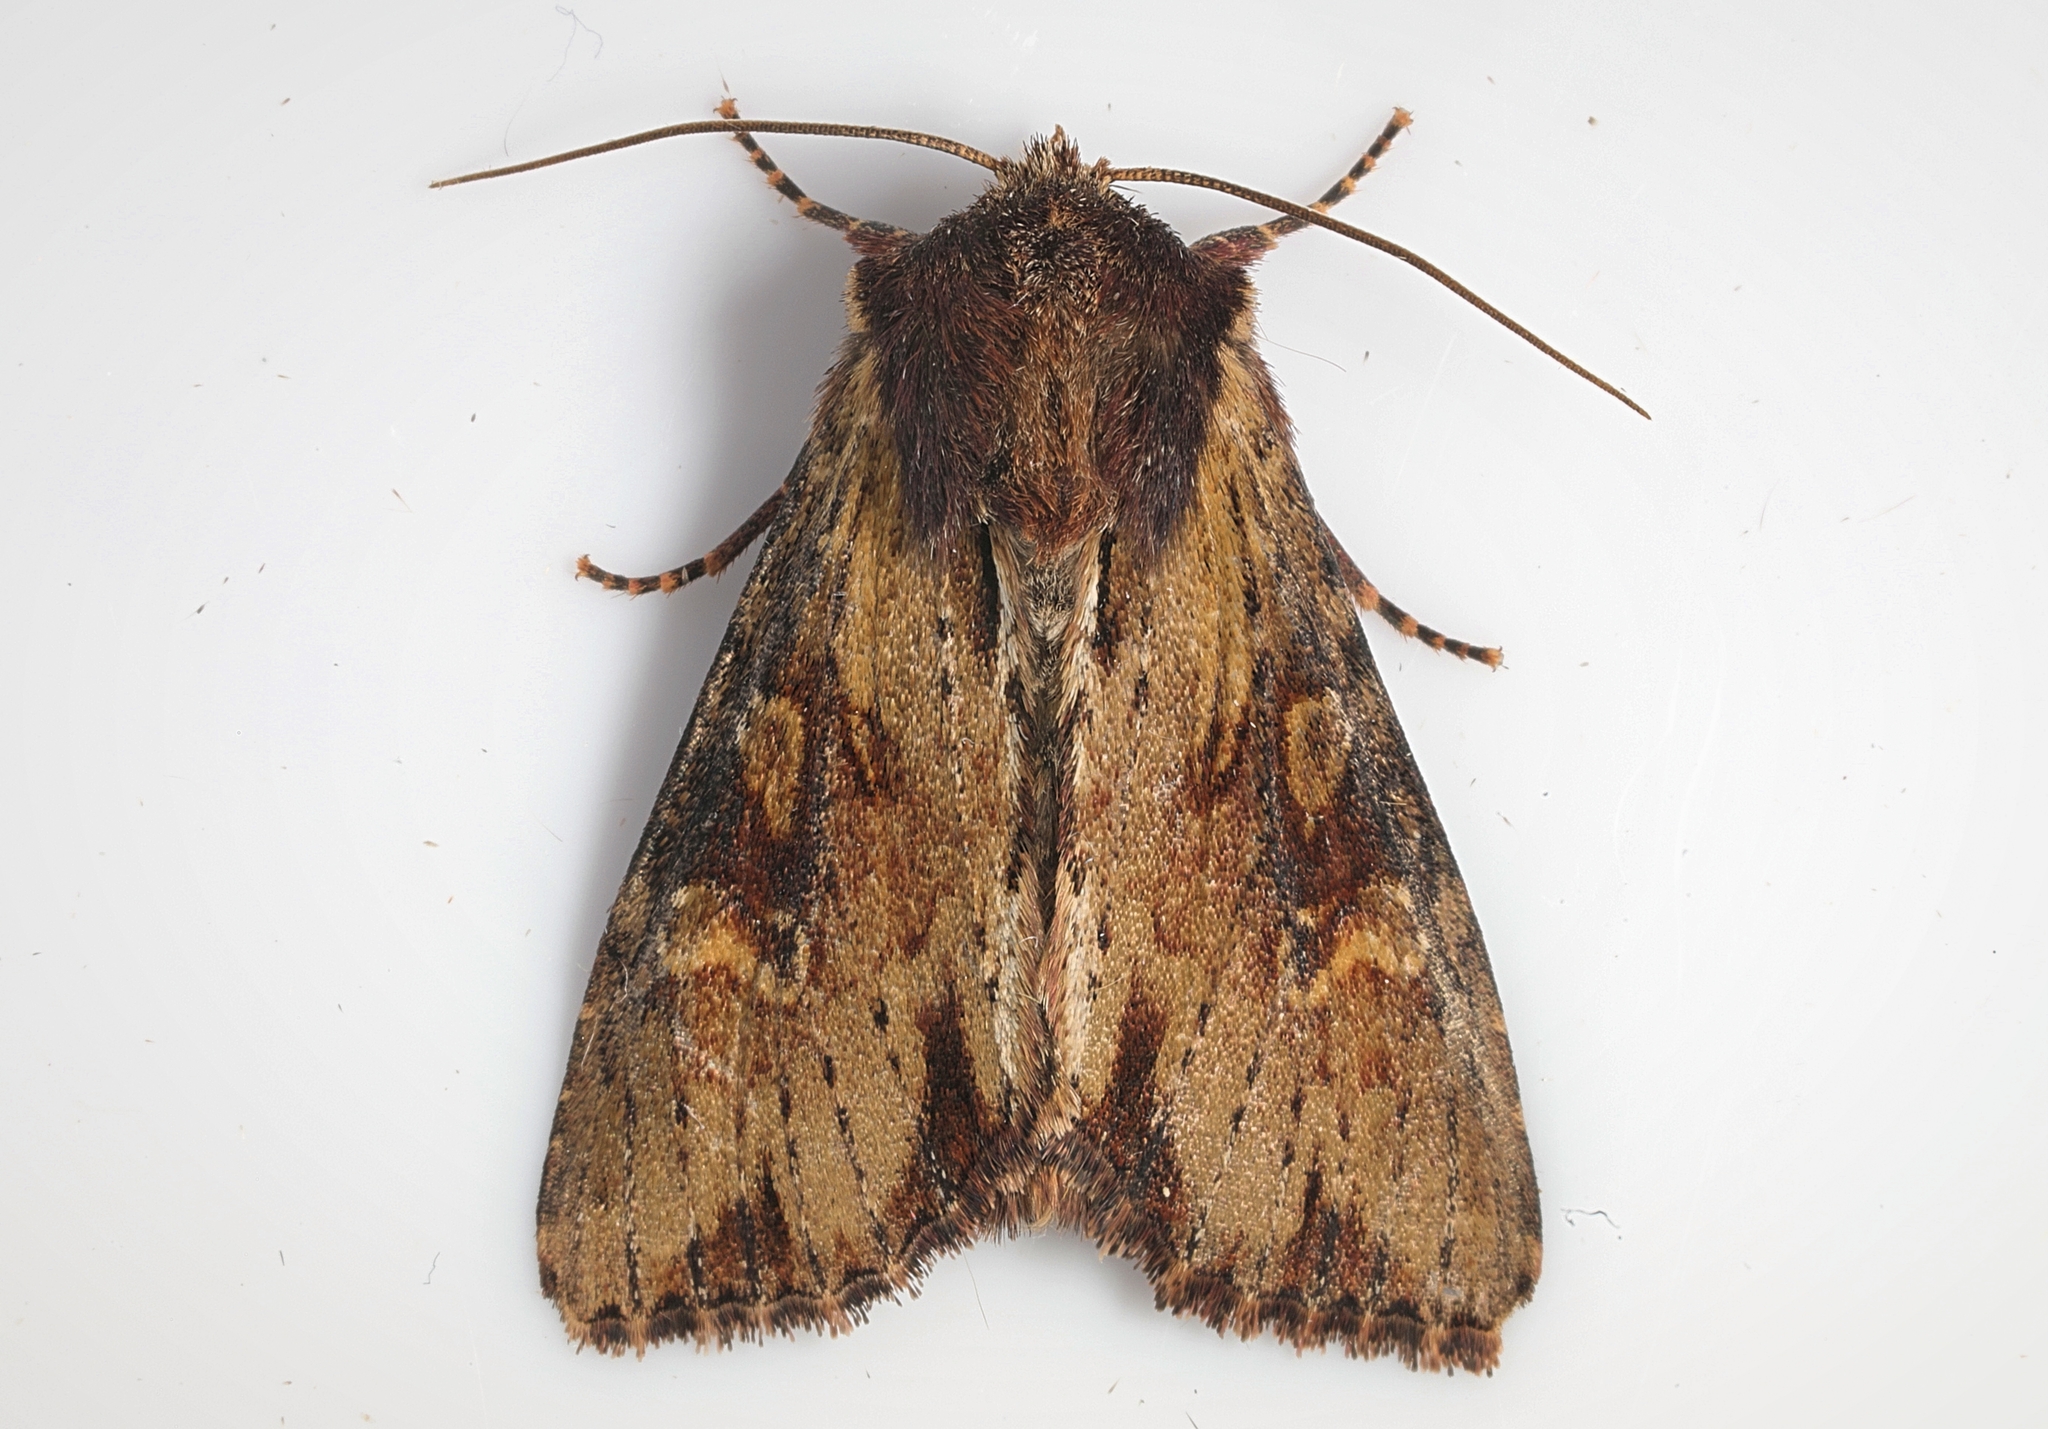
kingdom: Animalia
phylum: Arthropoda
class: Insecta
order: Lepidoptera
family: Noctuidae
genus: Apamea
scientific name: Apamea crenata
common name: Clouded-bordered brindle
